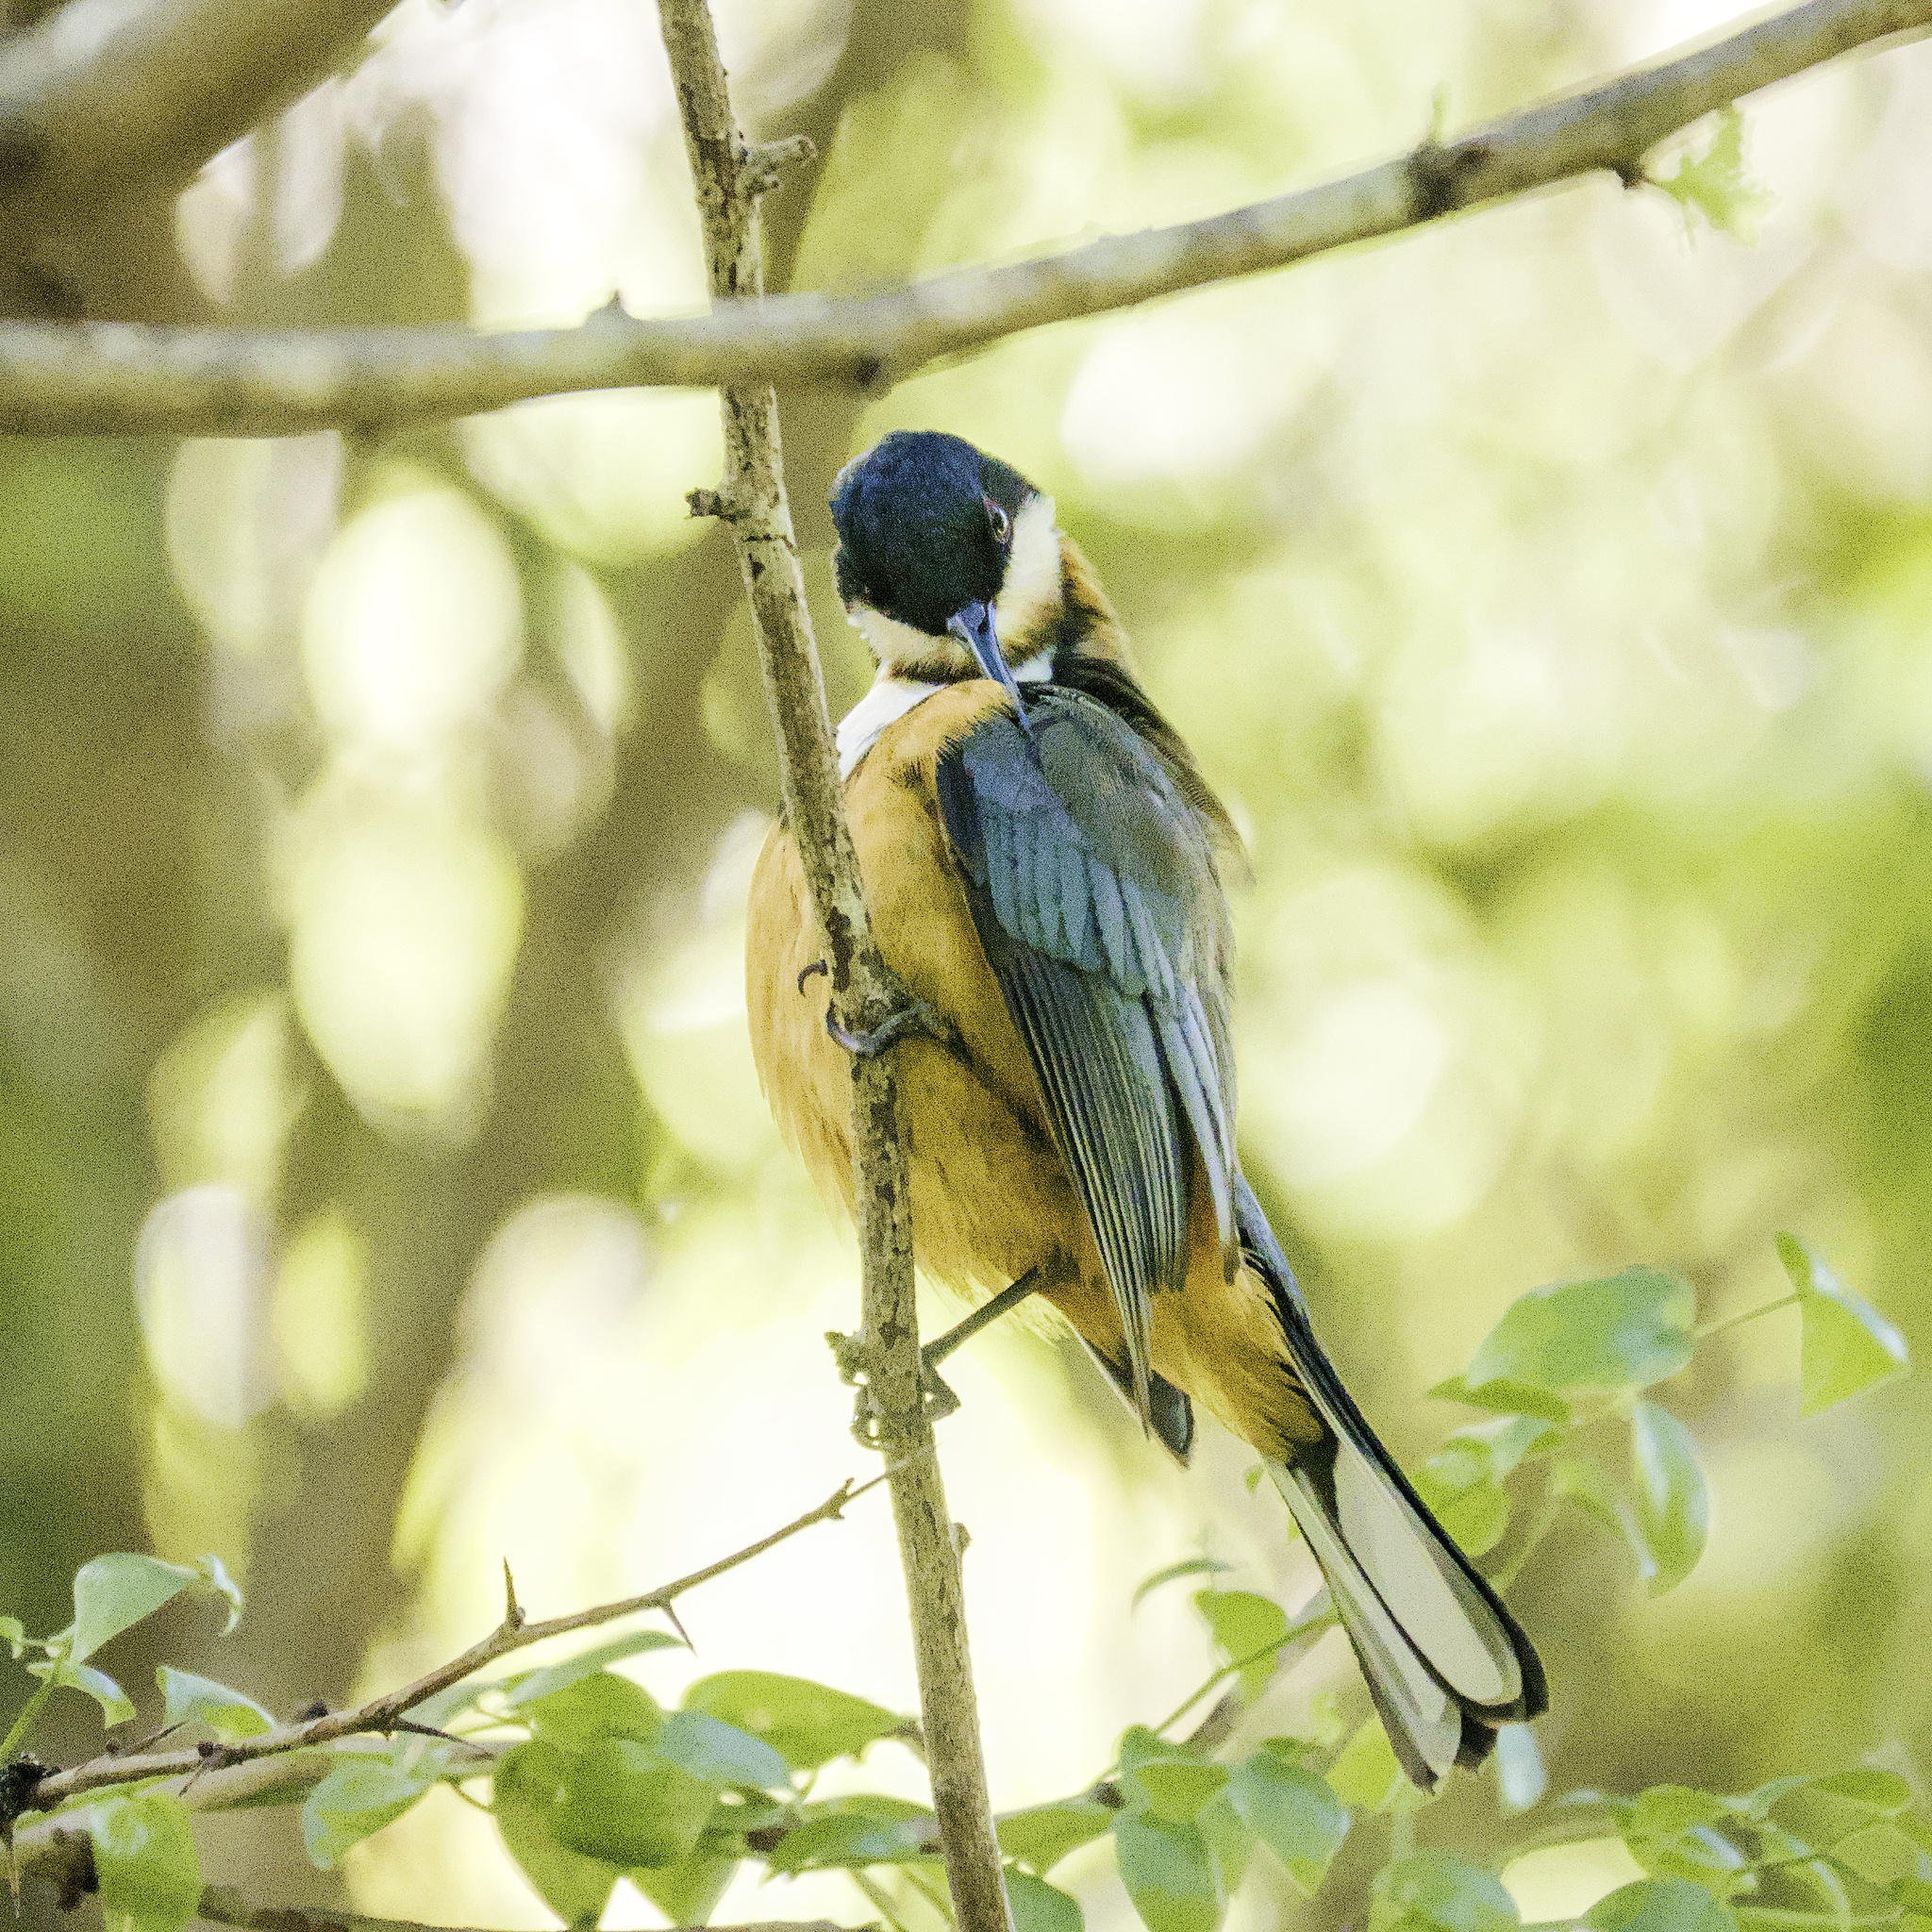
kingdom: Animalia
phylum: Chordata
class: Aves
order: Passeriformes
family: Meliphagidae
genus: Acanthorhynchus
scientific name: Acanthorhynchus tenuirostris
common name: Eastern spinebill
